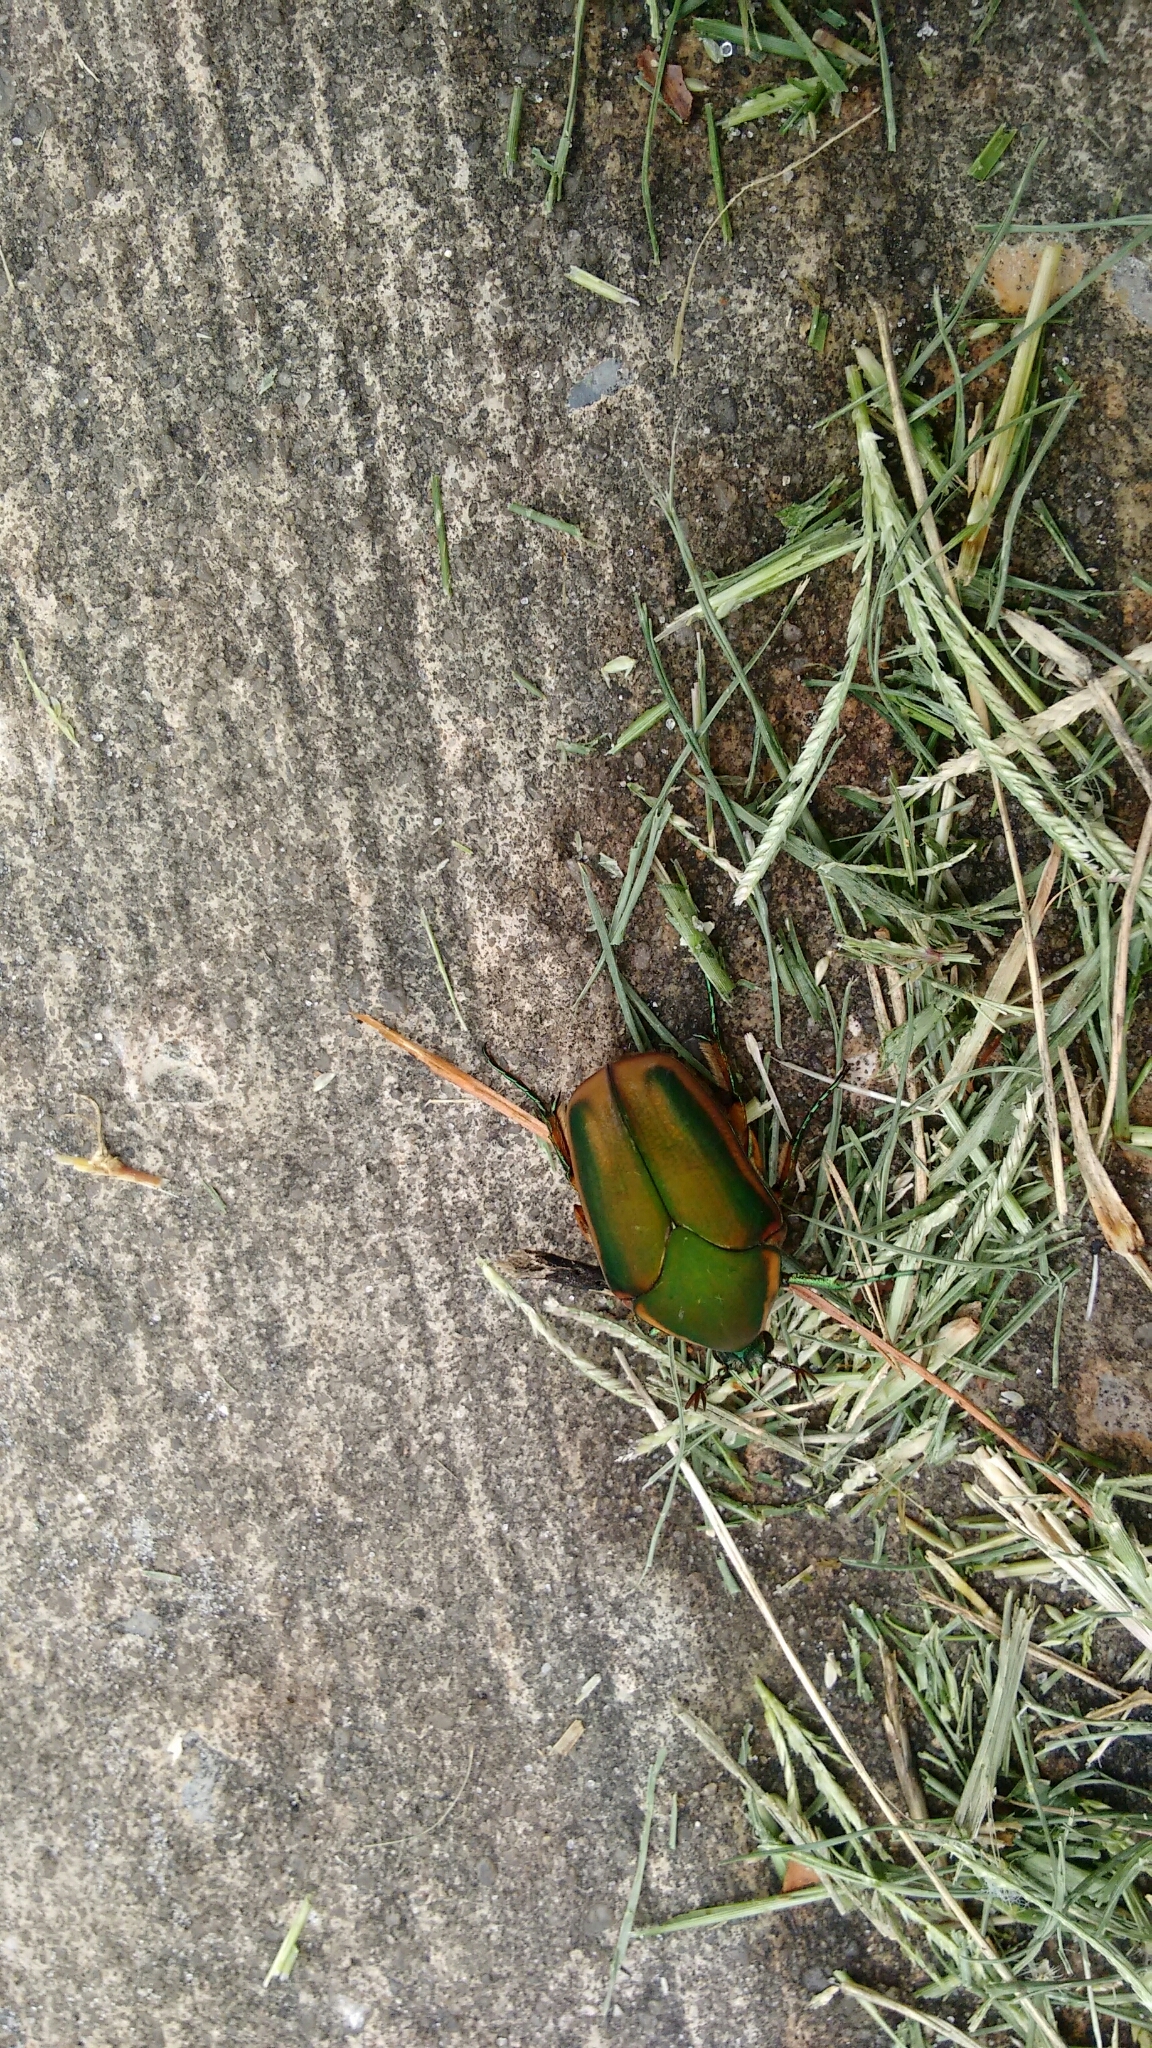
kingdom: Animalia
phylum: Arthropoda
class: Insecta
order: Coleoptera
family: Scarabaeidae
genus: Cotinis
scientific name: Cotinis nitida
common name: Common green june beetle
